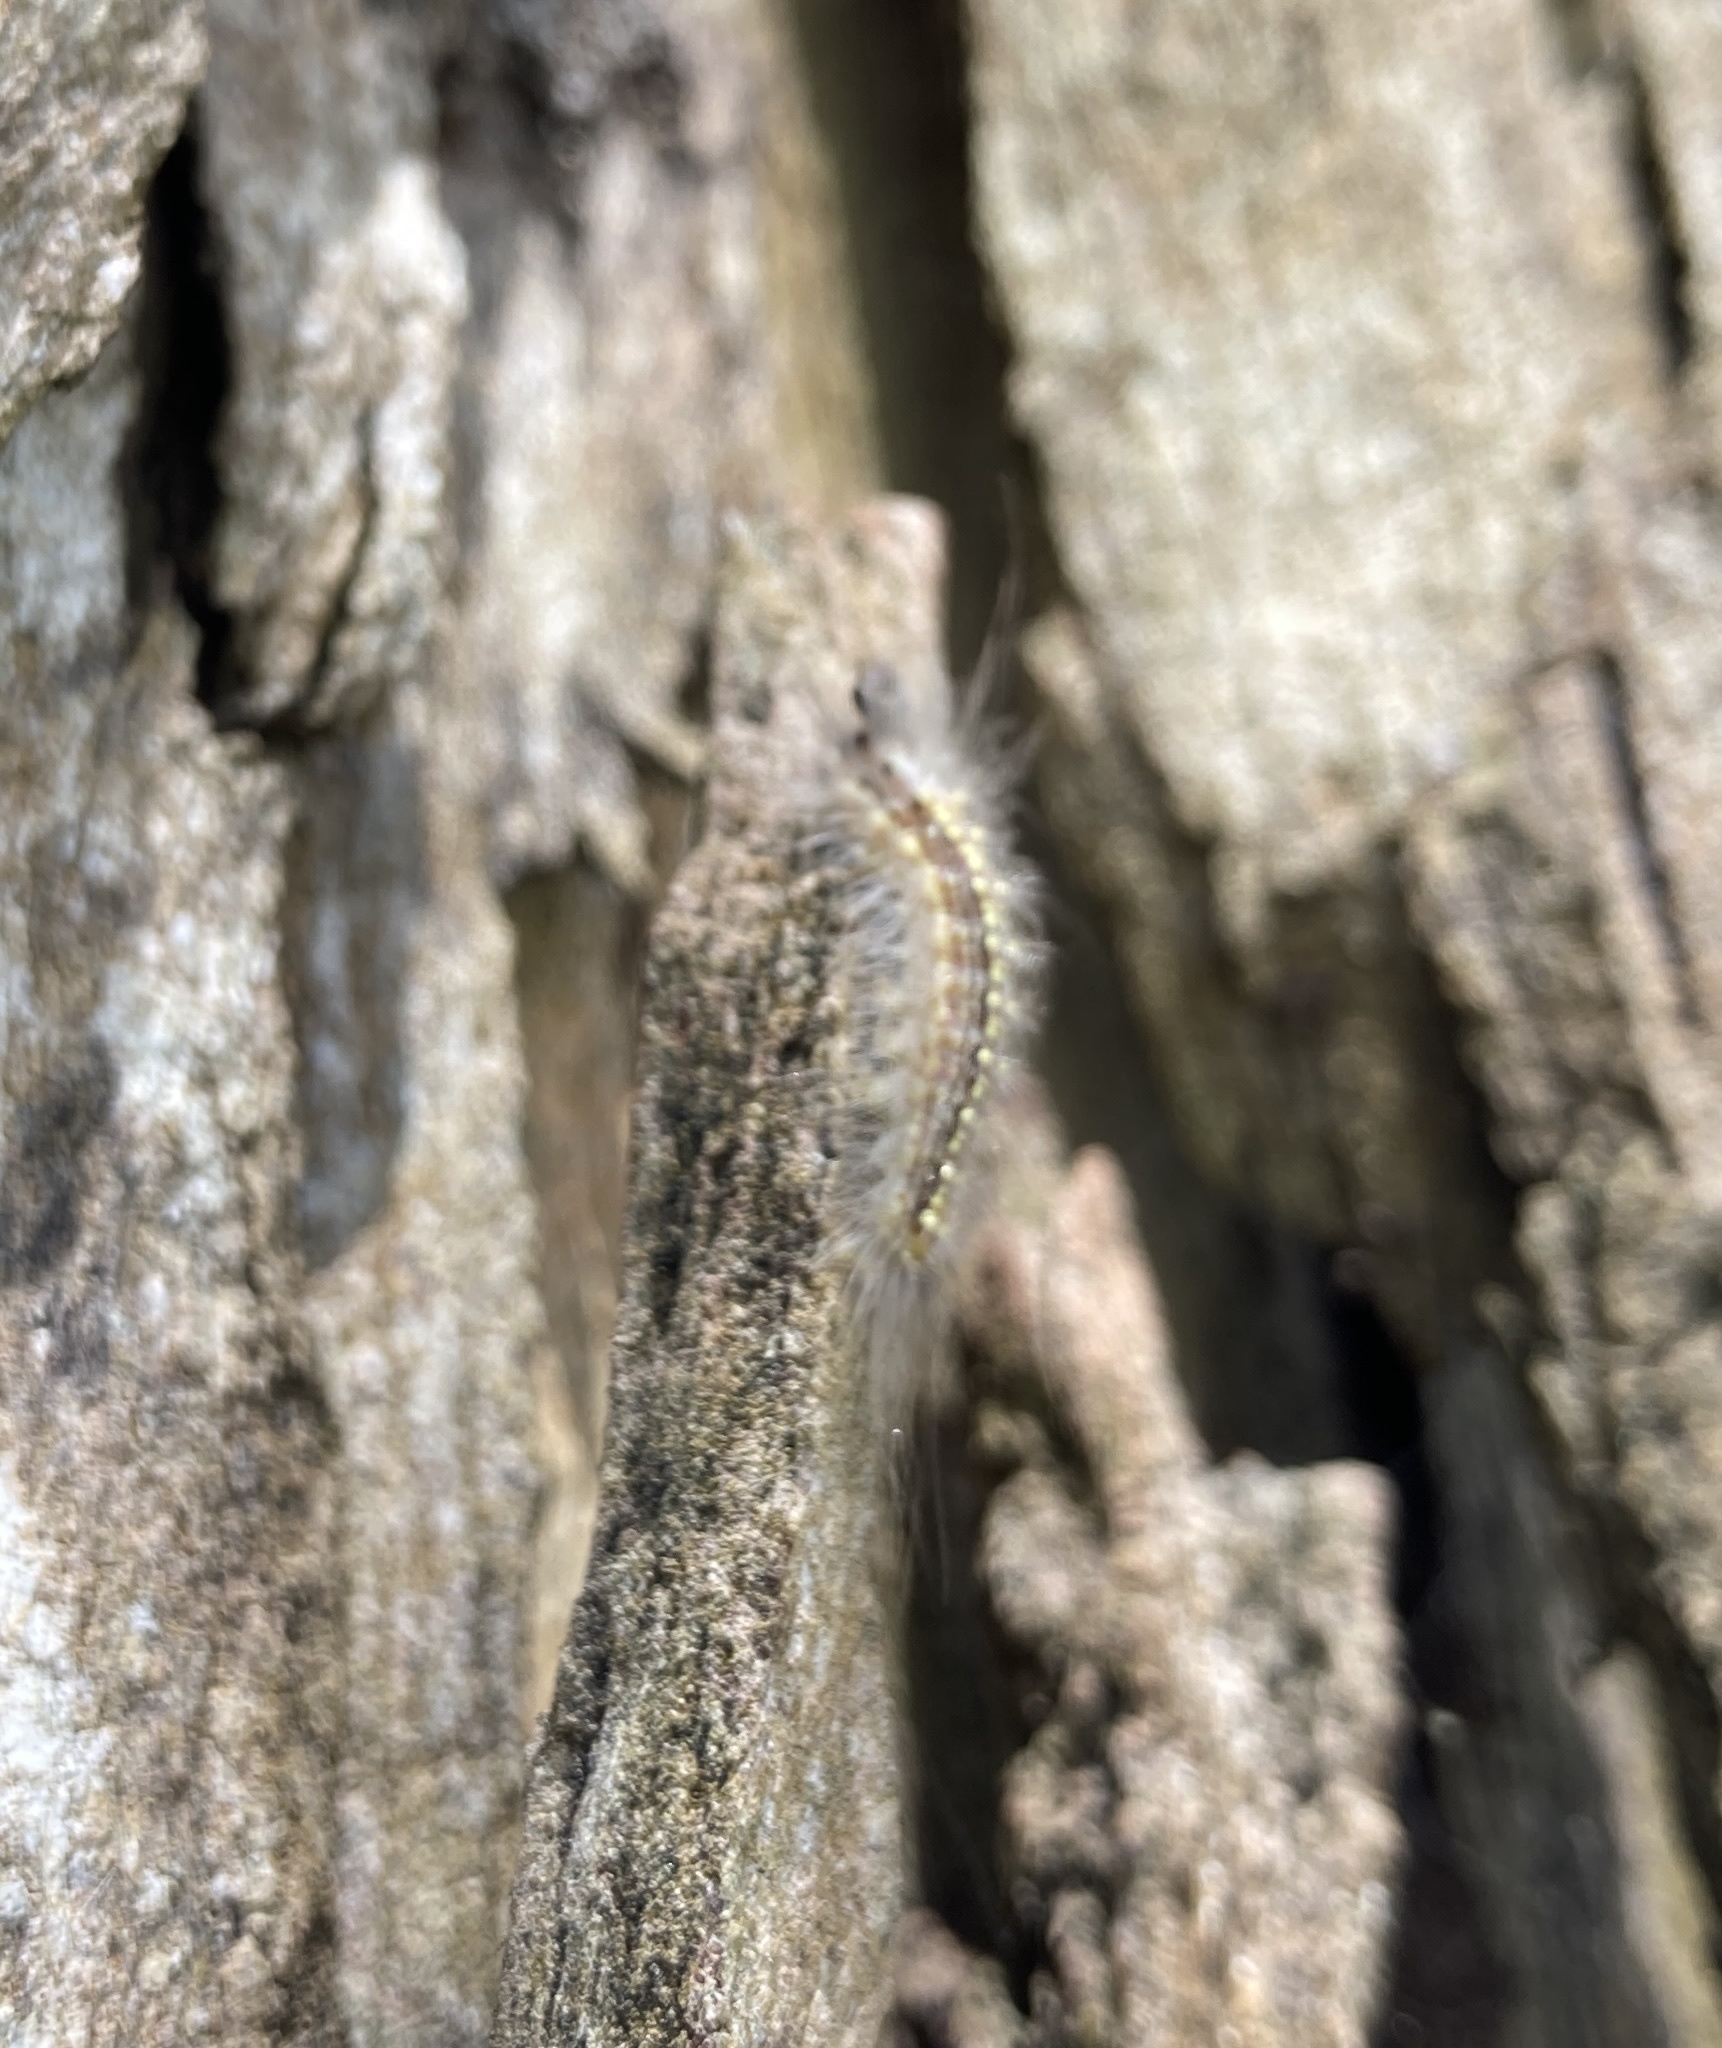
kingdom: Animalia
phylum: Arthropoda
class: Insecta
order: Lepidoptera
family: Nolidae
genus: Uraba
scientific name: Uraba lugens
